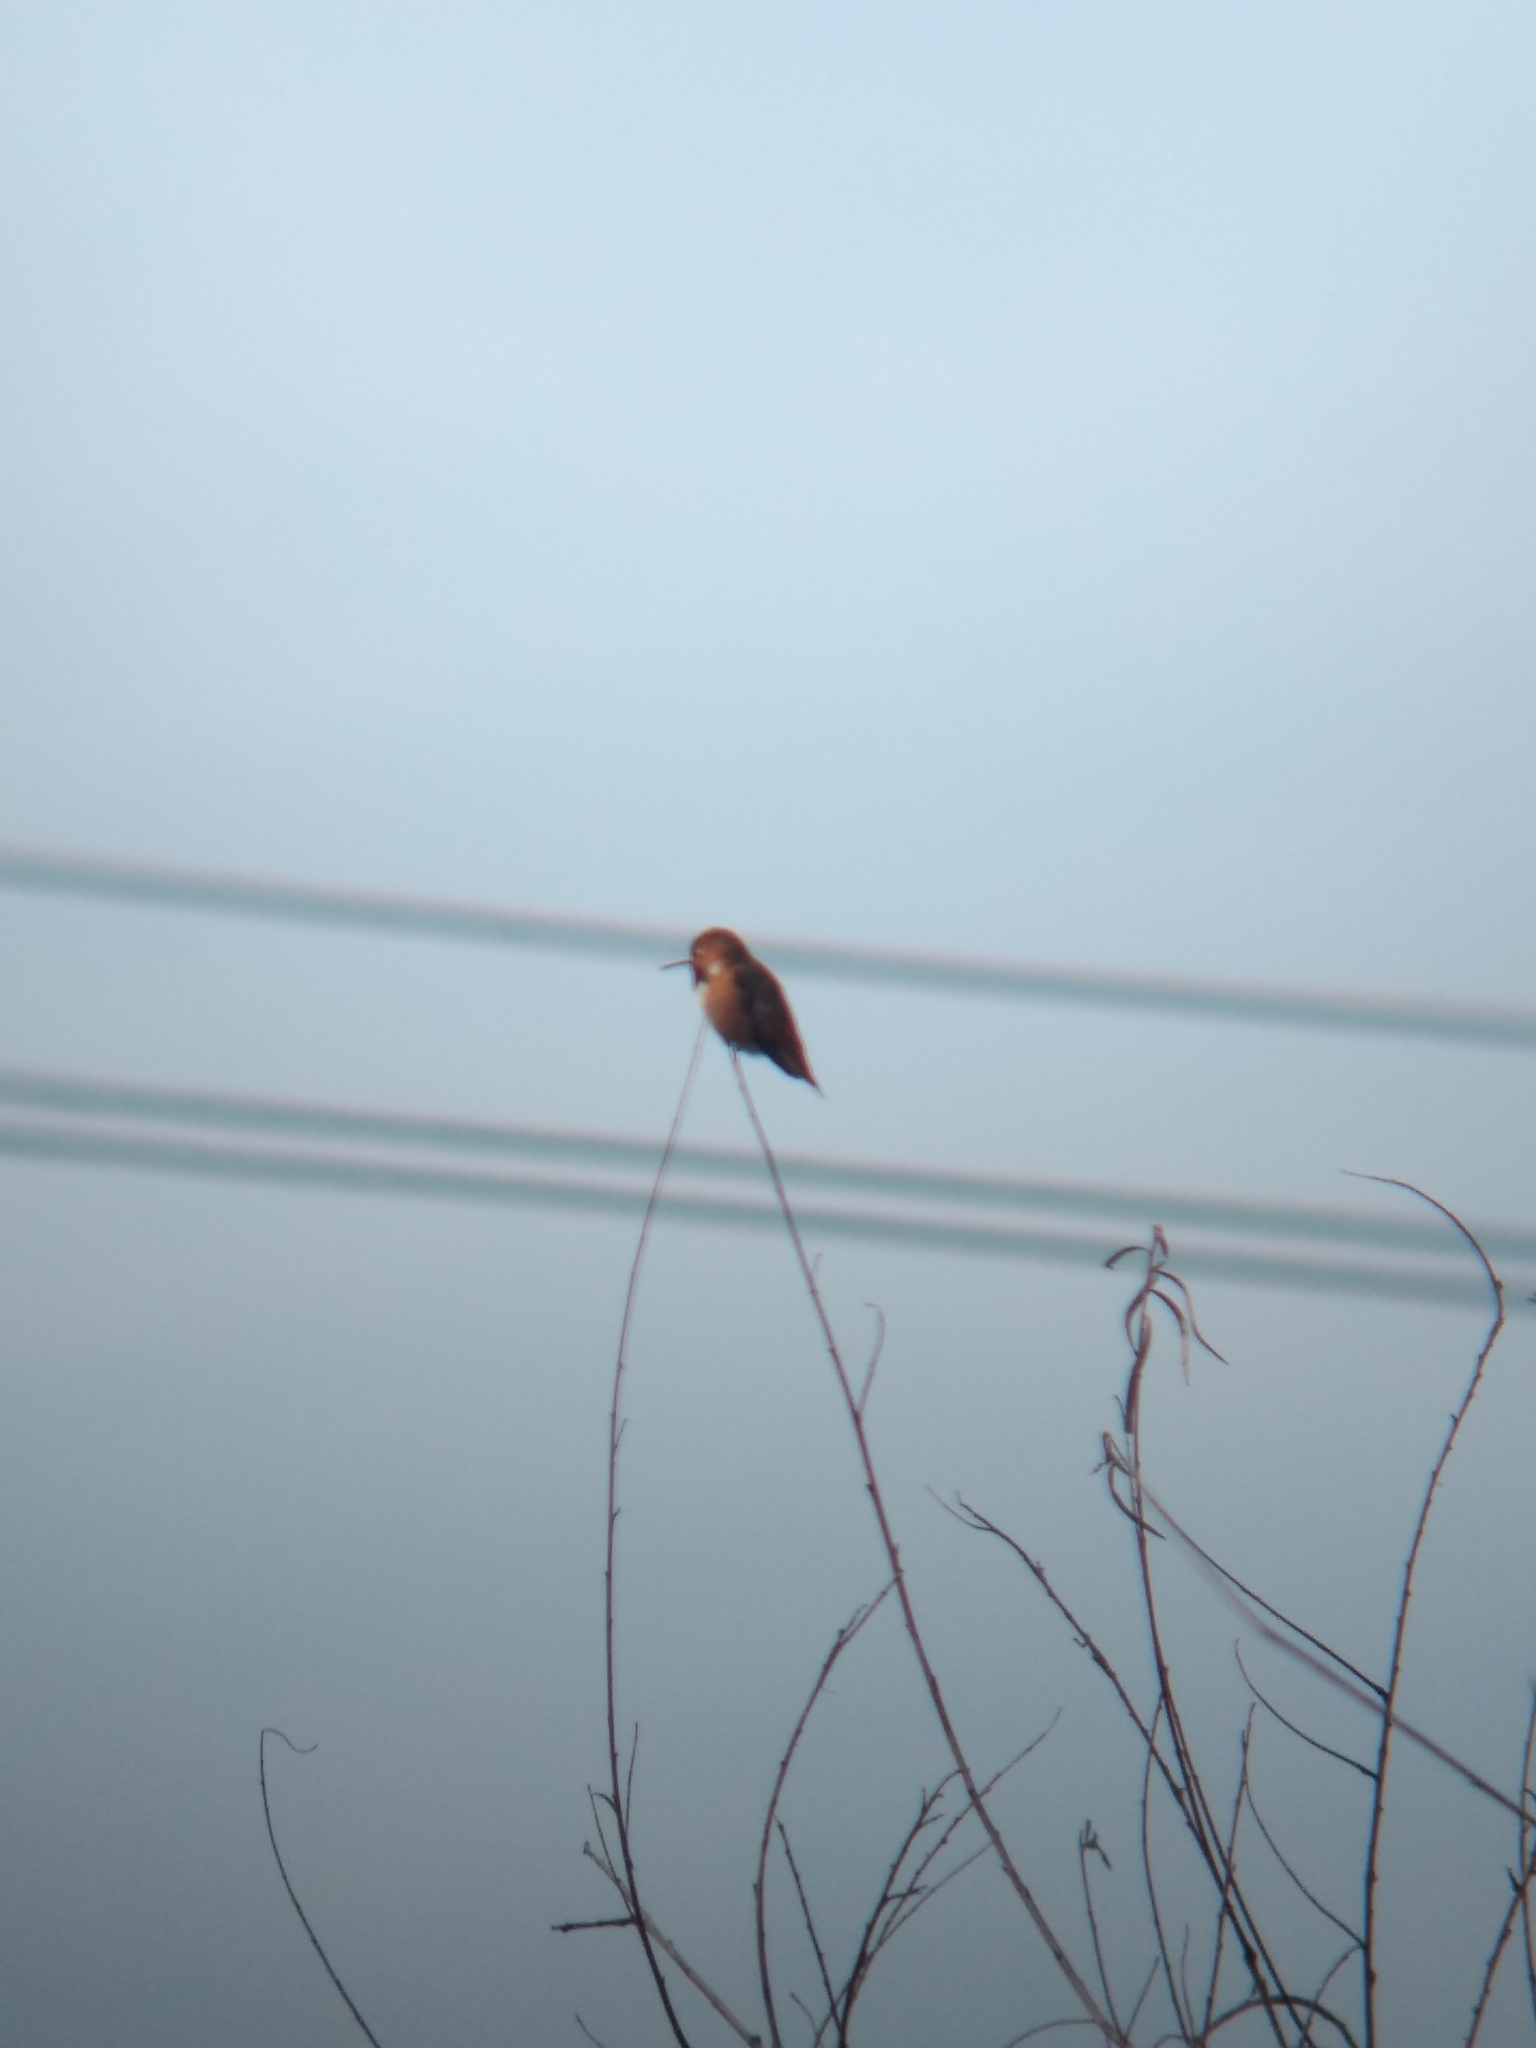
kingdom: Animalia
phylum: Chordata
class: Aves
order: Apodiformes
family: Trochilidae
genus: Selasphorus
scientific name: Selasphorus sasin
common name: Allen's hummingbird
